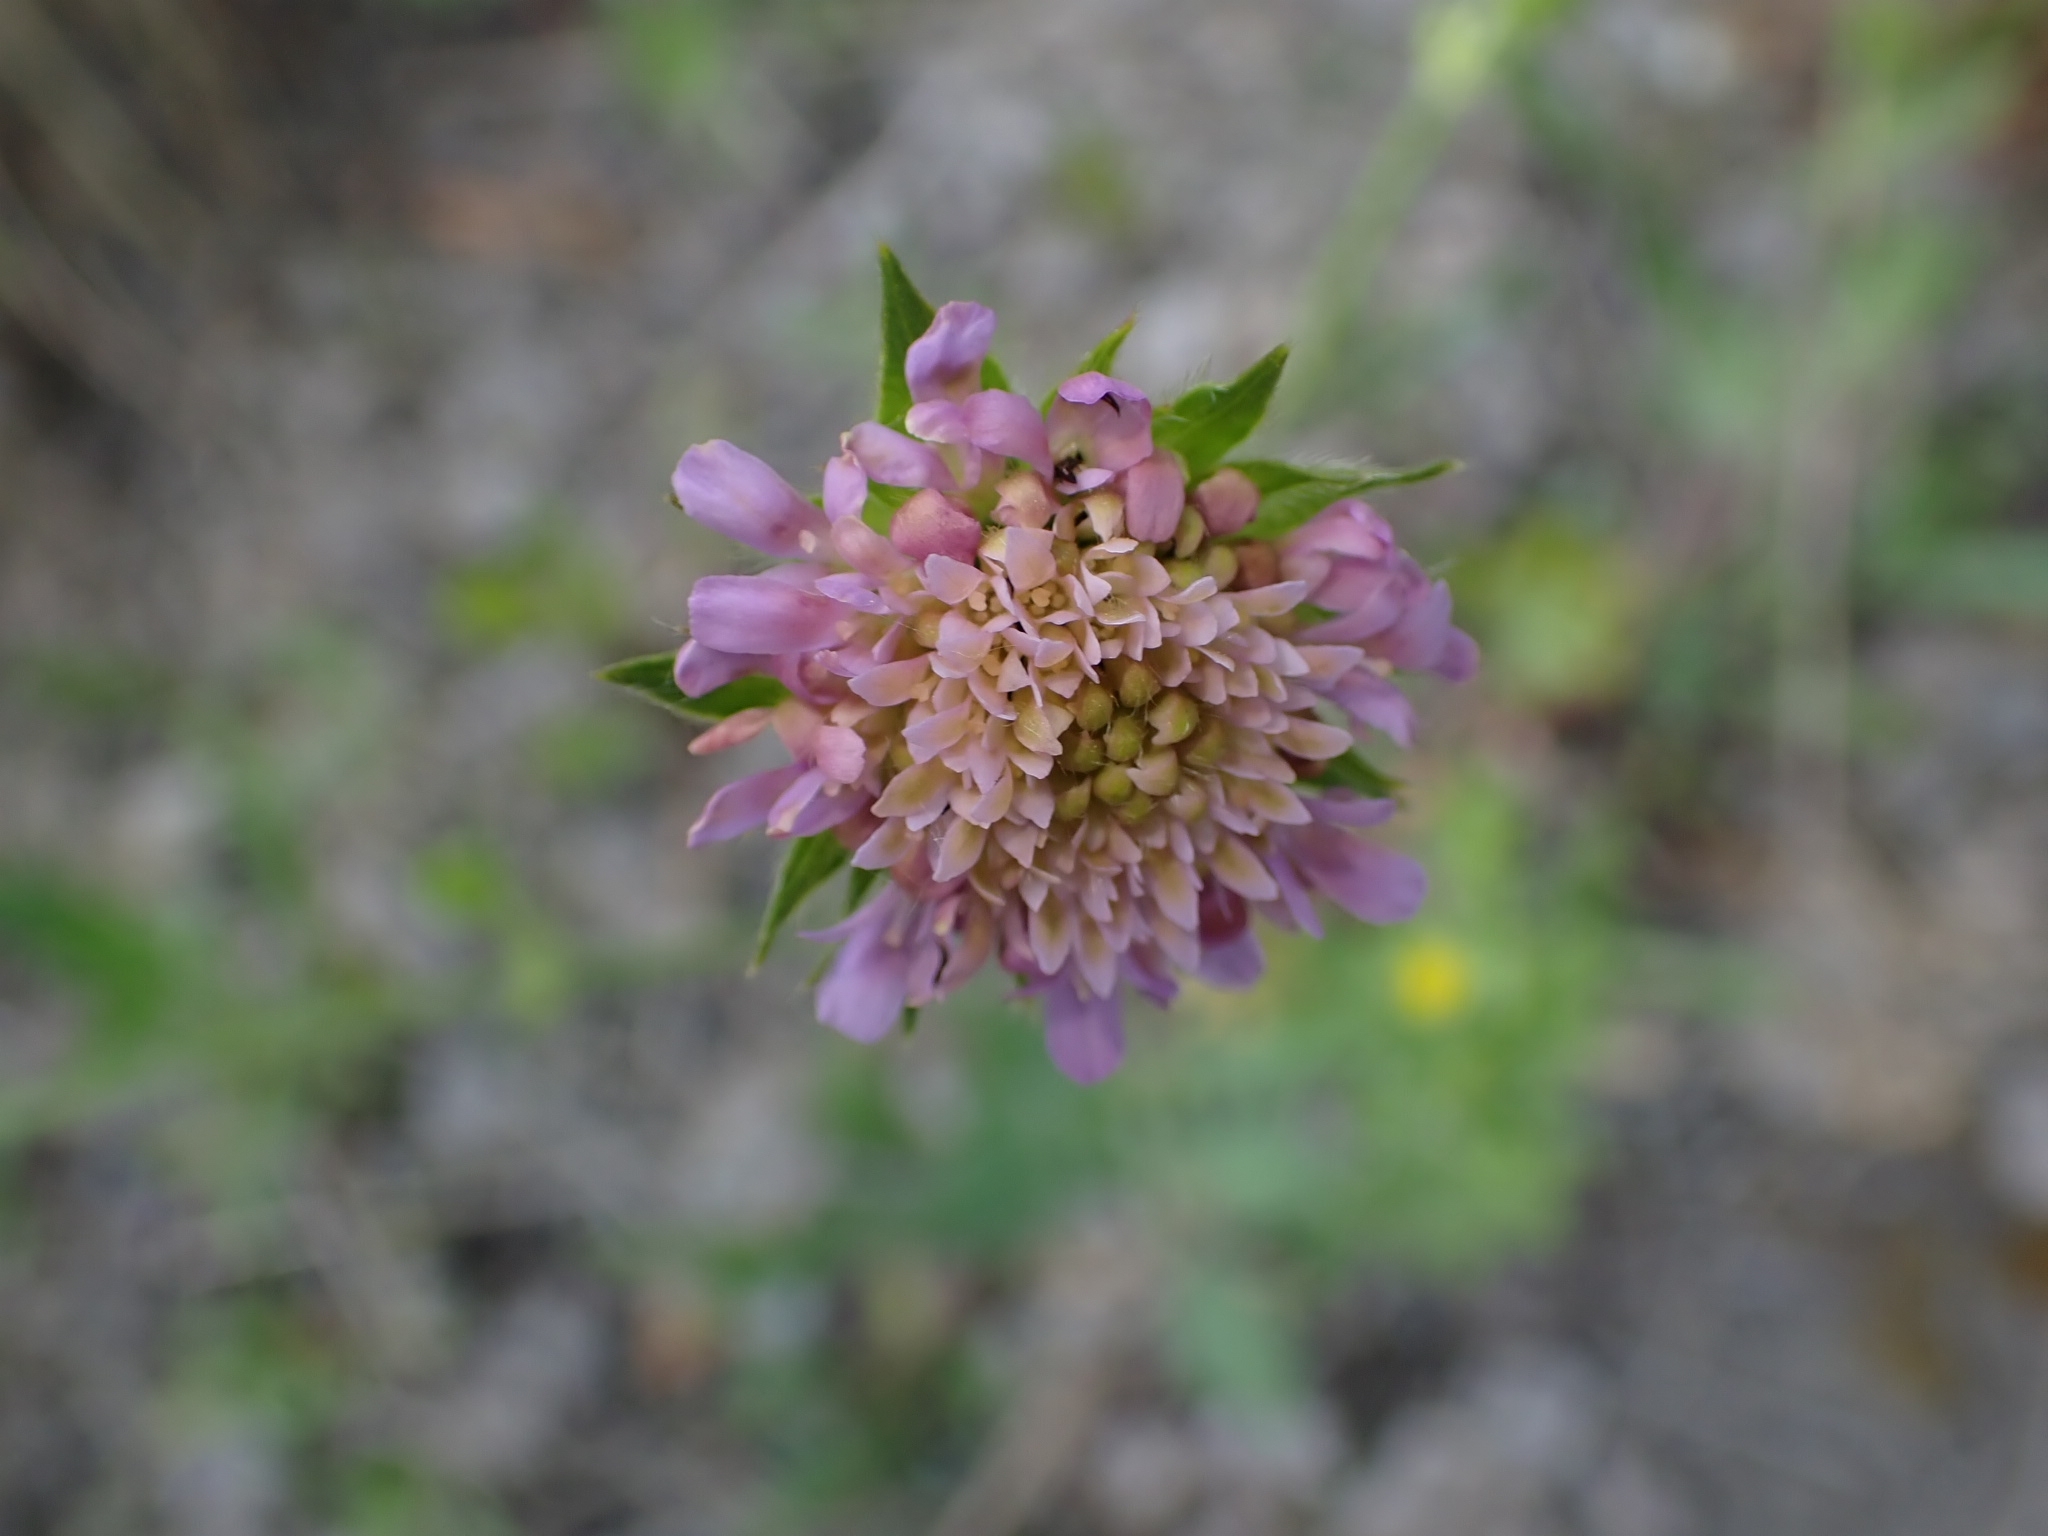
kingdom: Plantae
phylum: Tracheophyta
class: Magnoliopsida
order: Dipsacales
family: Caprifoliaceae
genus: Knautia
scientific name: Knautia arvensis
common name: Field scabiosa
